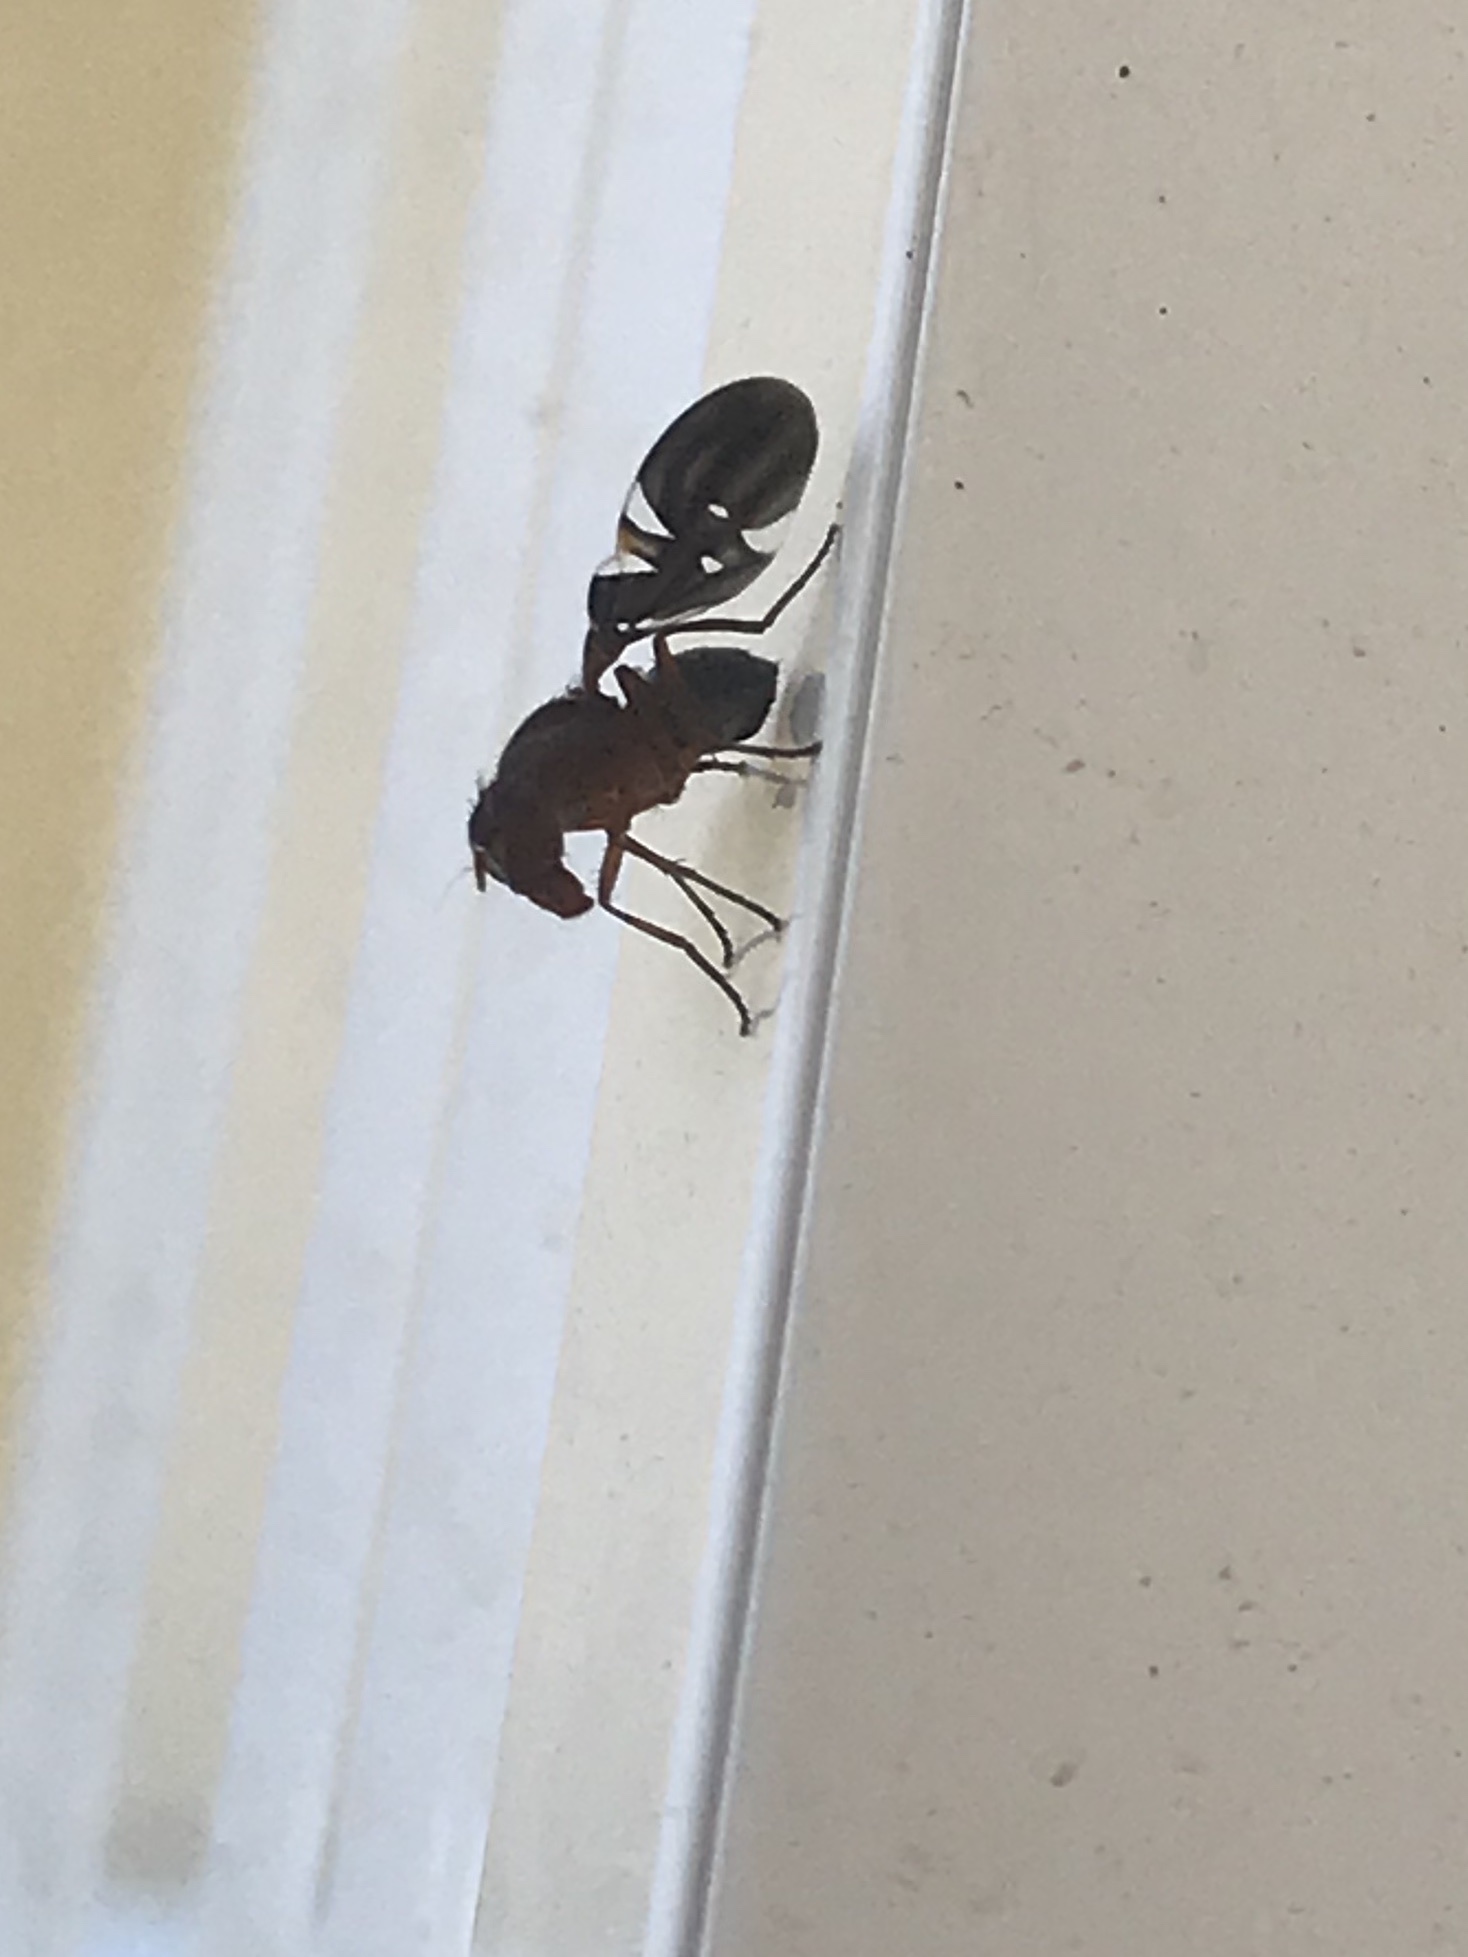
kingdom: Animalia
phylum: Arthropoda
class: Insecta
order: Diptera
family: Ulidiidae
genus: Delphinia
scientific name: Delphinia picta
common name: Common picture-winged fly
